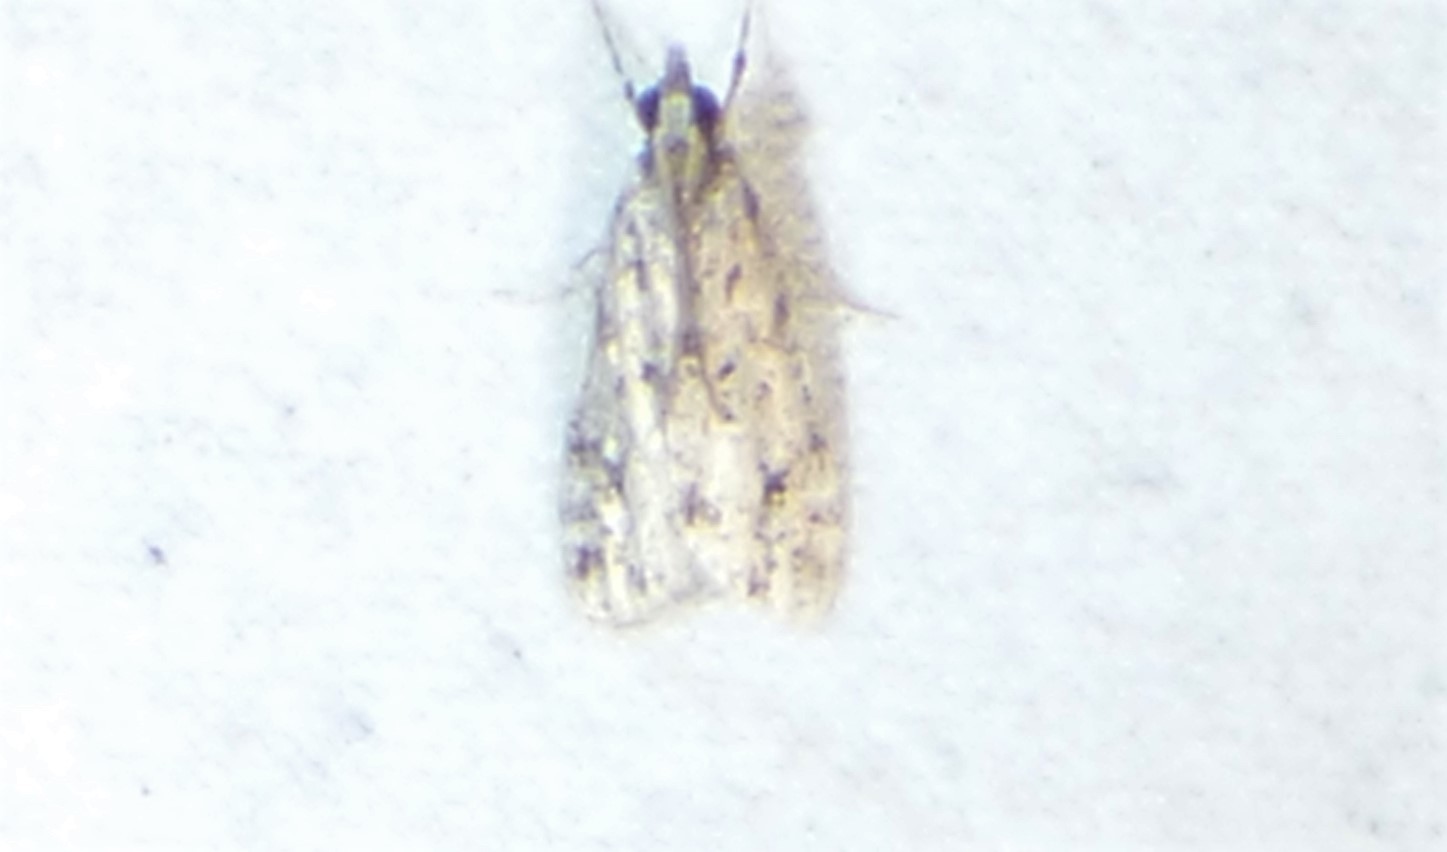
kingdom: Animalia
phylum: Arthropoda
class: Insecta
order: Lepidoptera
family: Crambidae
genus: Eudonia
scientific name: Eudonia strigalis
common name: Striped eudonia moth
